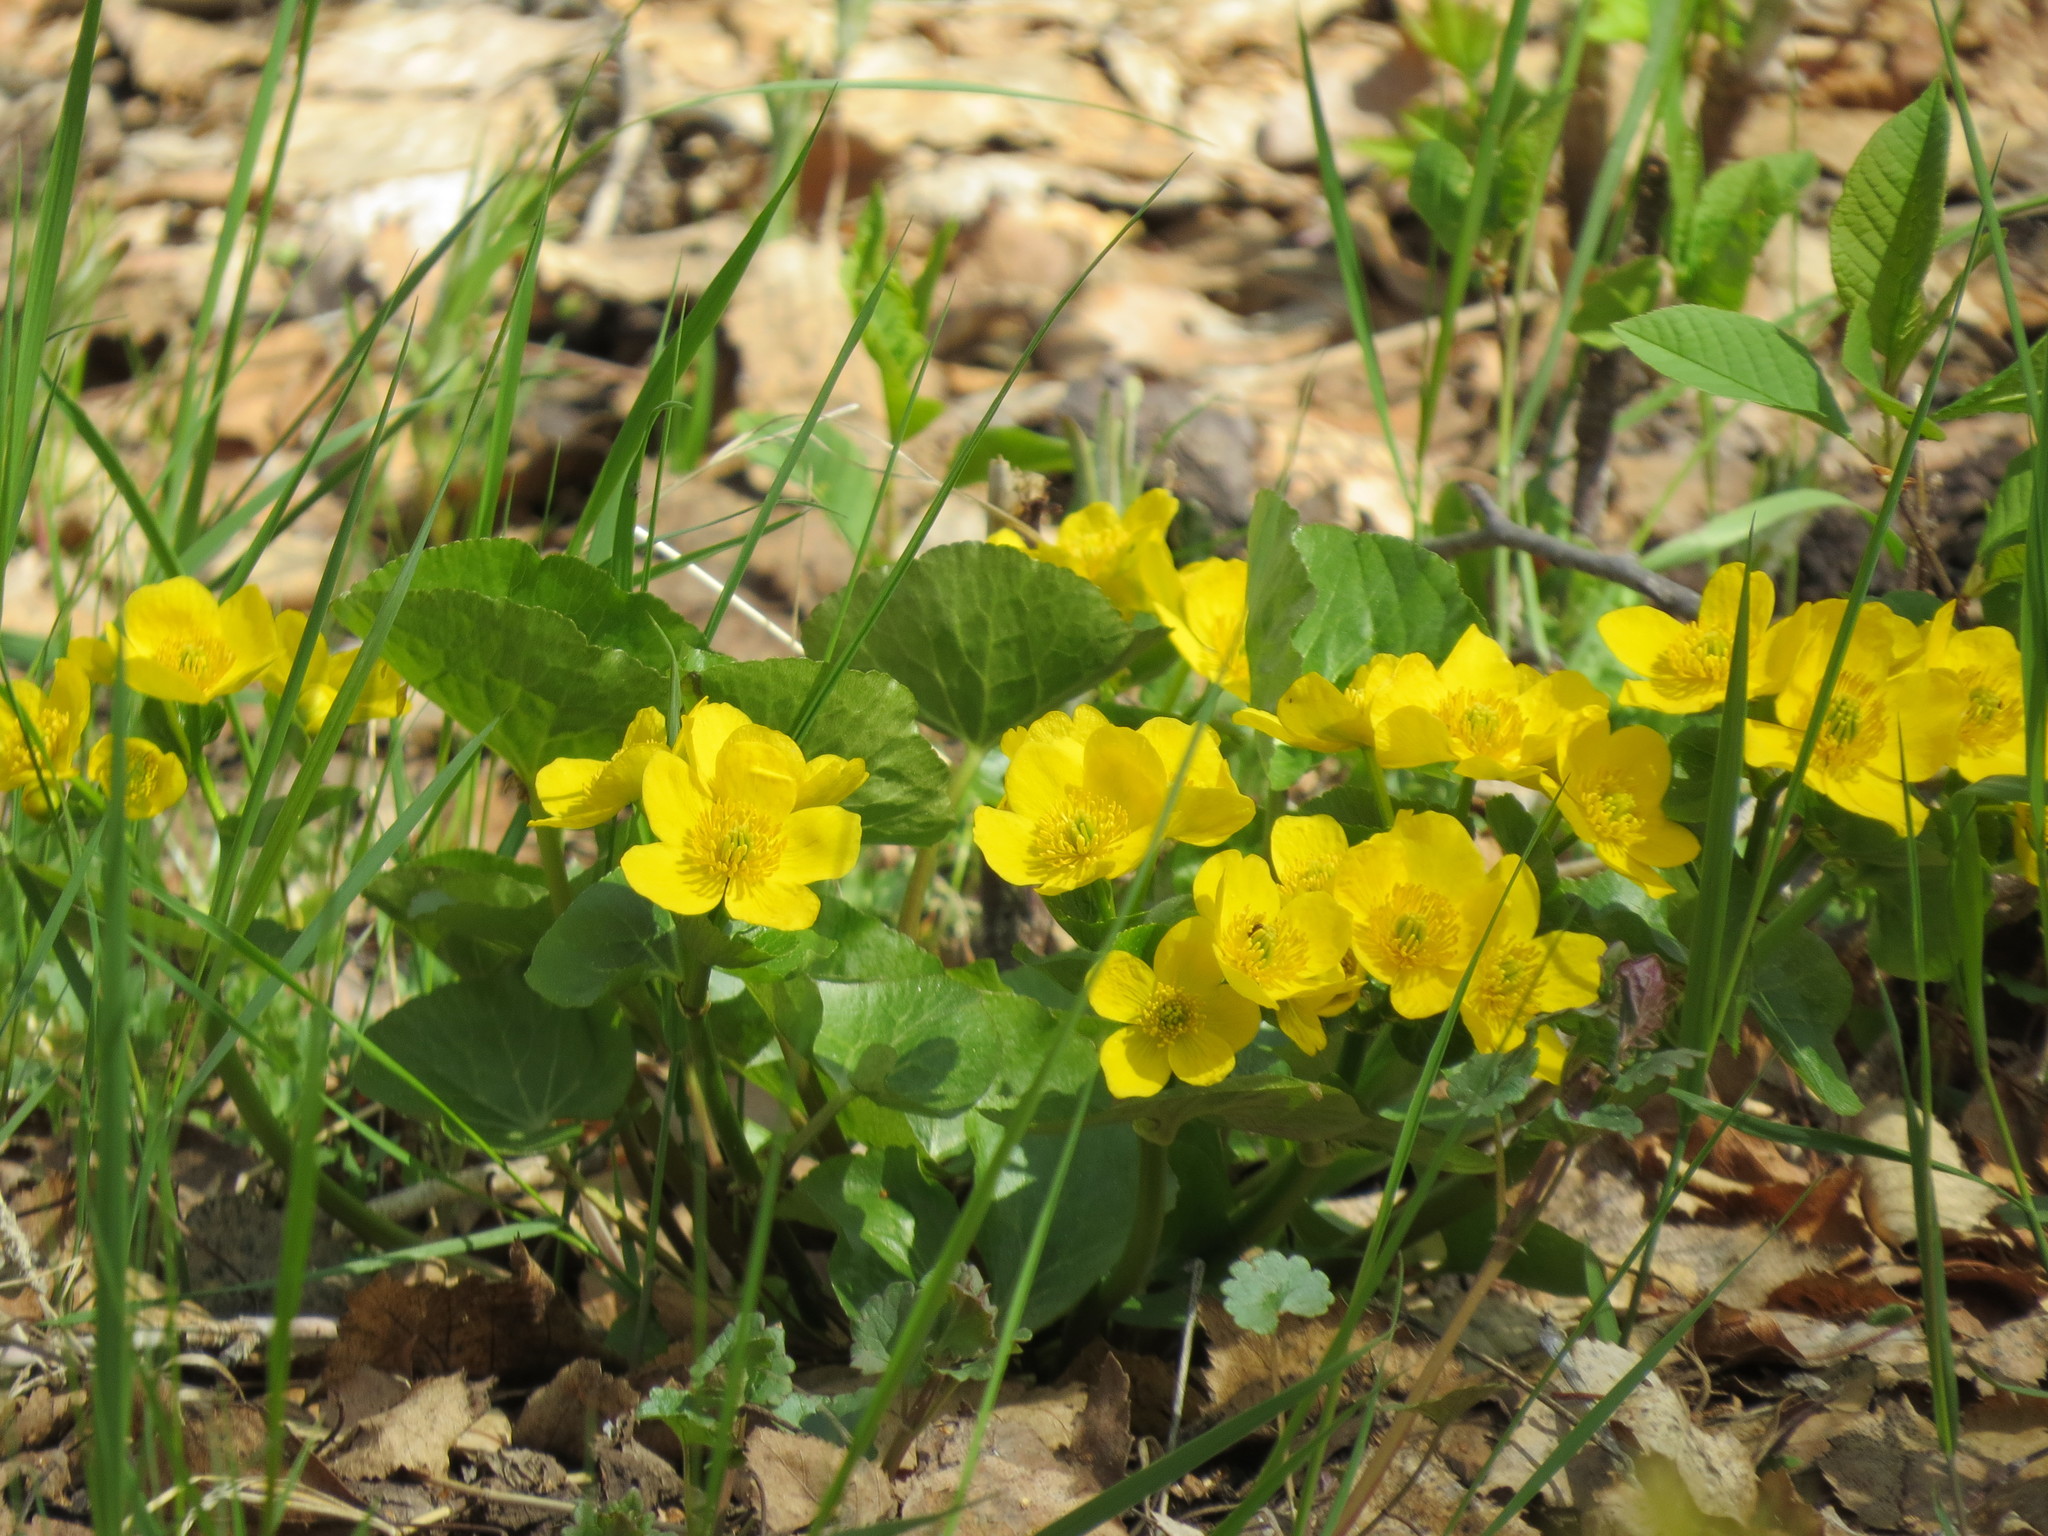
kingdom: Plantae
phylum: Tracheophyta
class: Magnoliopsida
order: Ranunculales
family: Ranunculaceae
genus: Caltha
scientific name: Caltha palustris
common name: Marsh marigold
